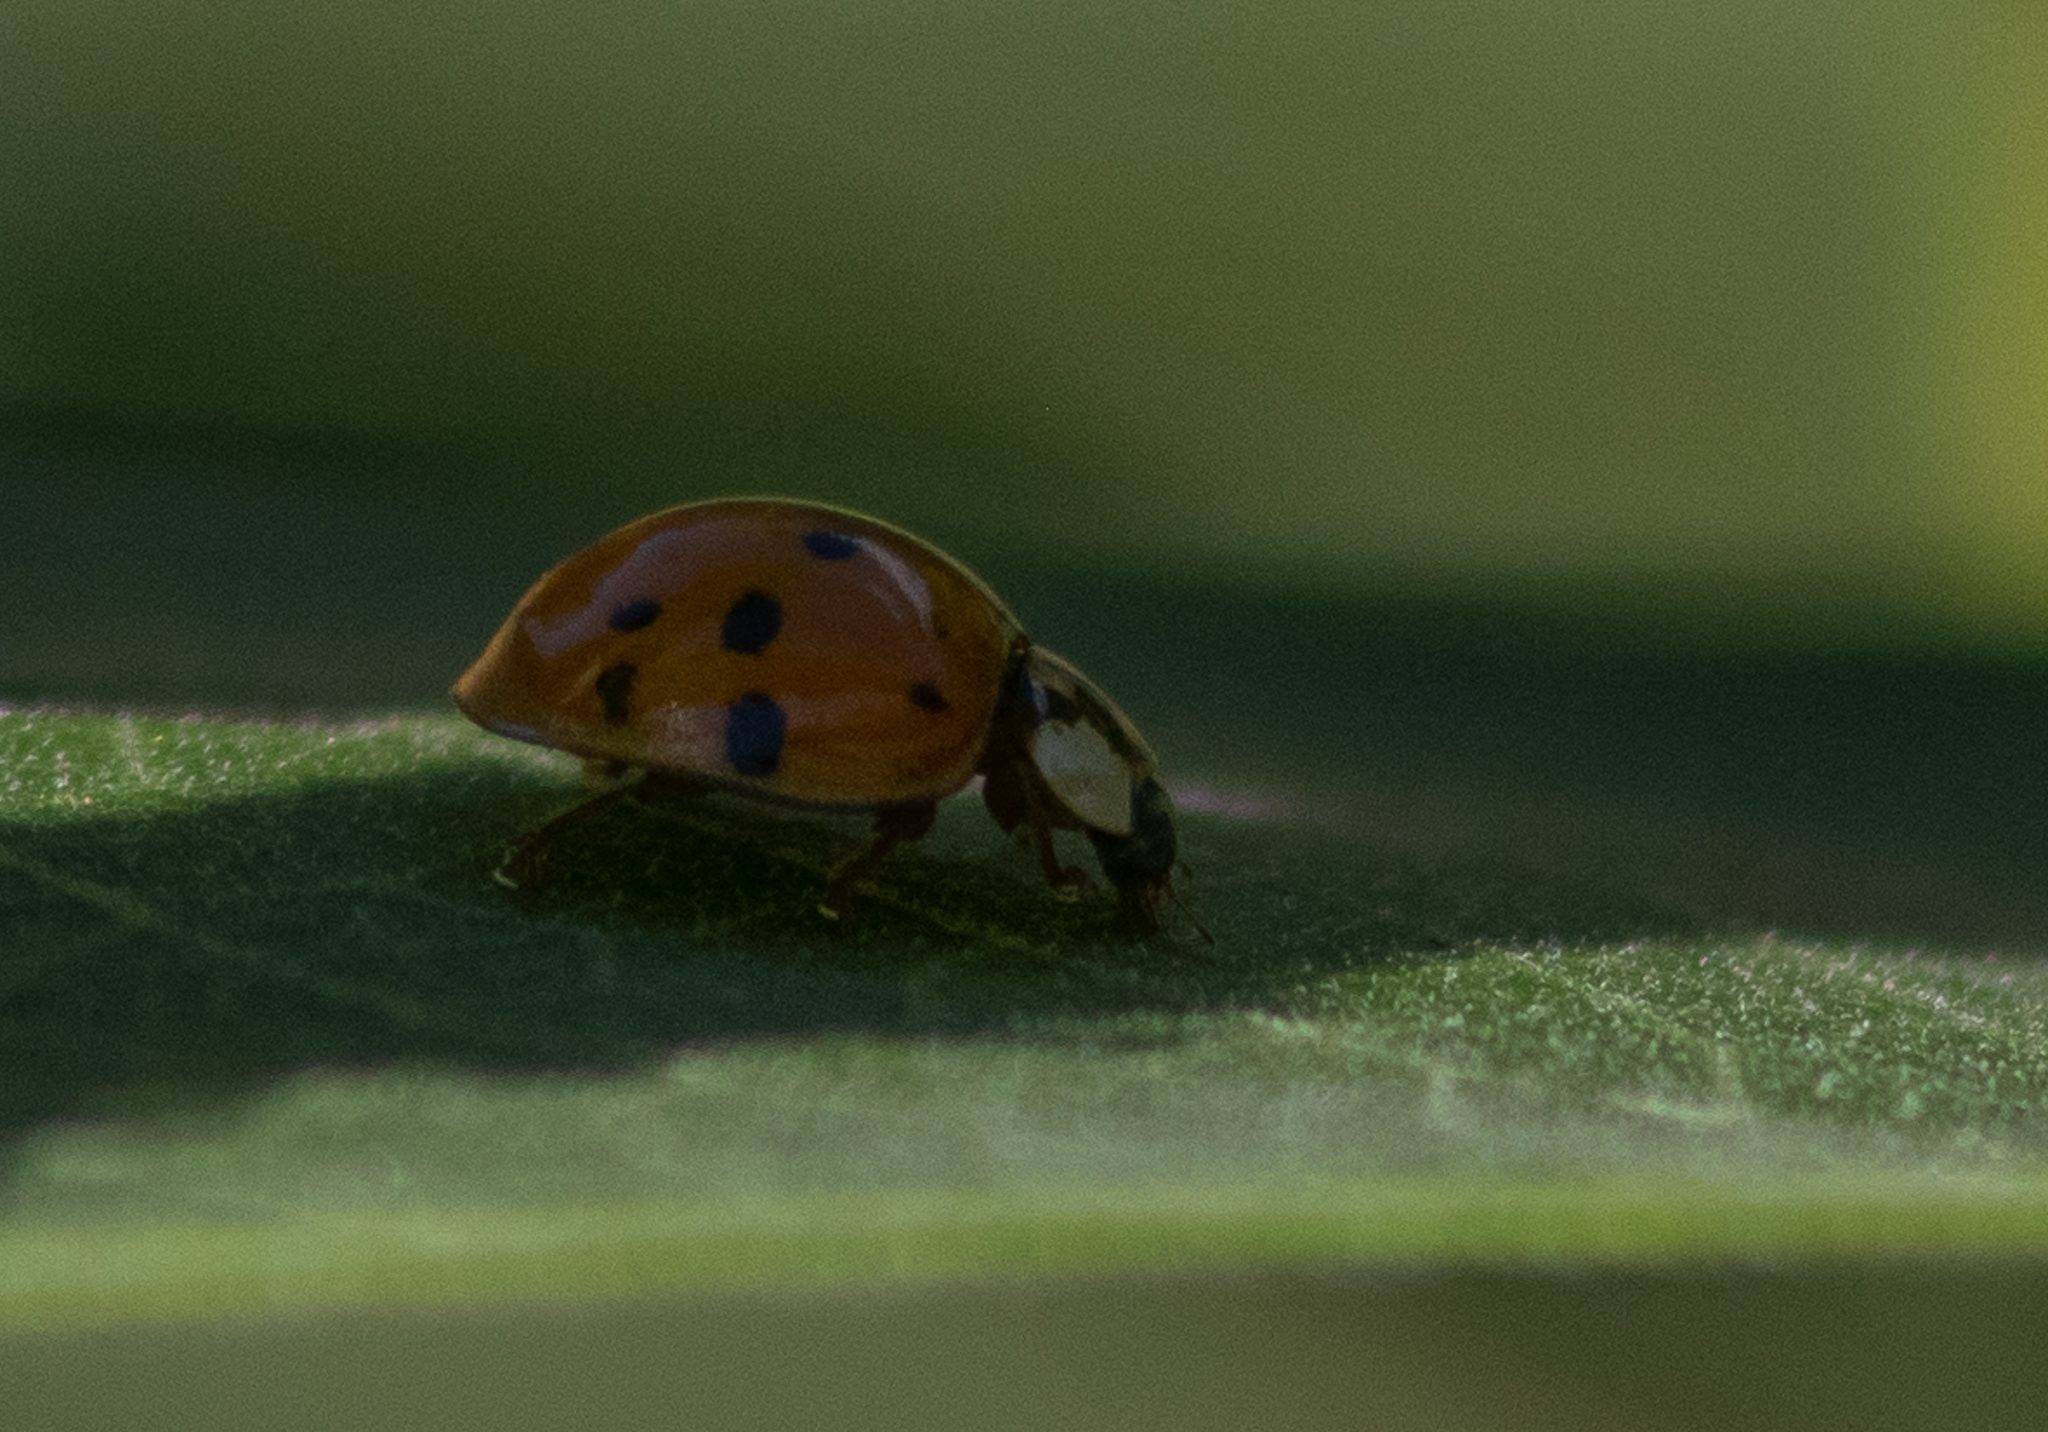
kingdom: Animalia
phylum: Arthropoda
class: Insecta
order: Coleoptera
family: Coccinellidae
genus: Harmonia
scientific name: Harmonia axyridis
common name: Harlequin ladybird
